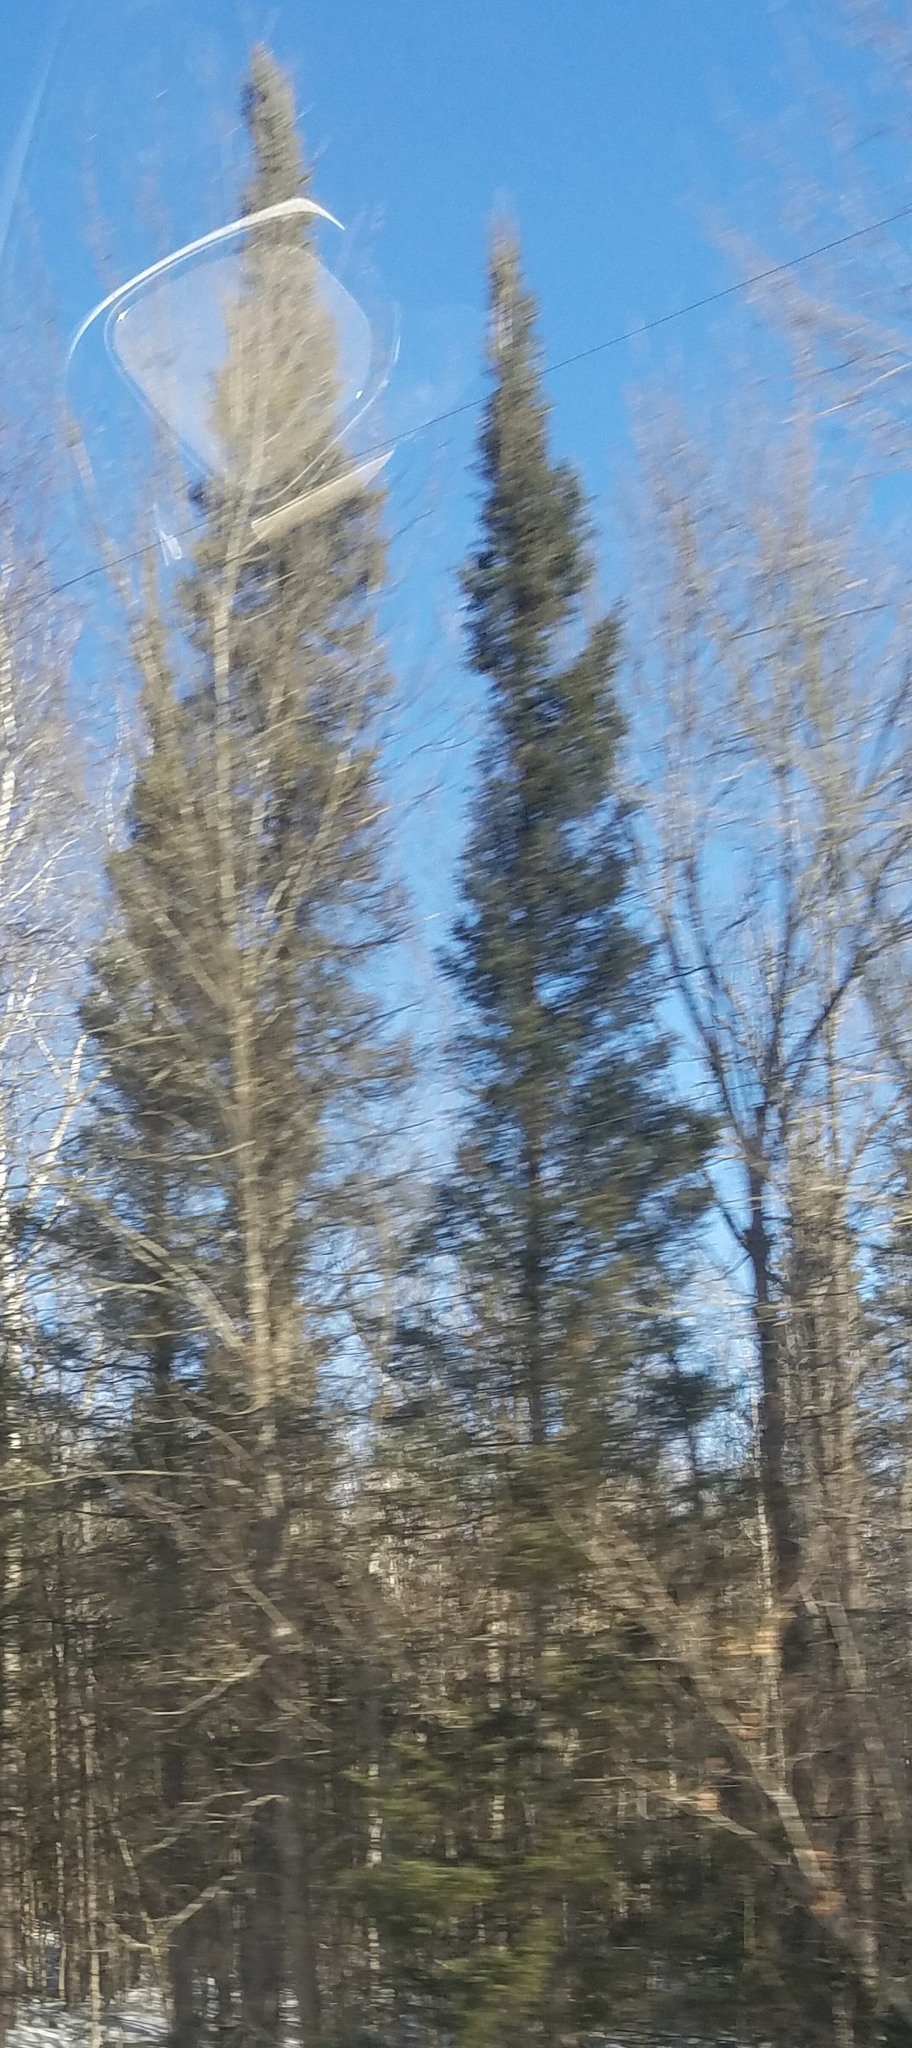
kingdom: Plantae
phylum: Tracheophyta
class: Pinopsida
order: Pinales
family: Pinaceae
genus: Picea
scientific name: Picea mariana
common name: Black spruce
